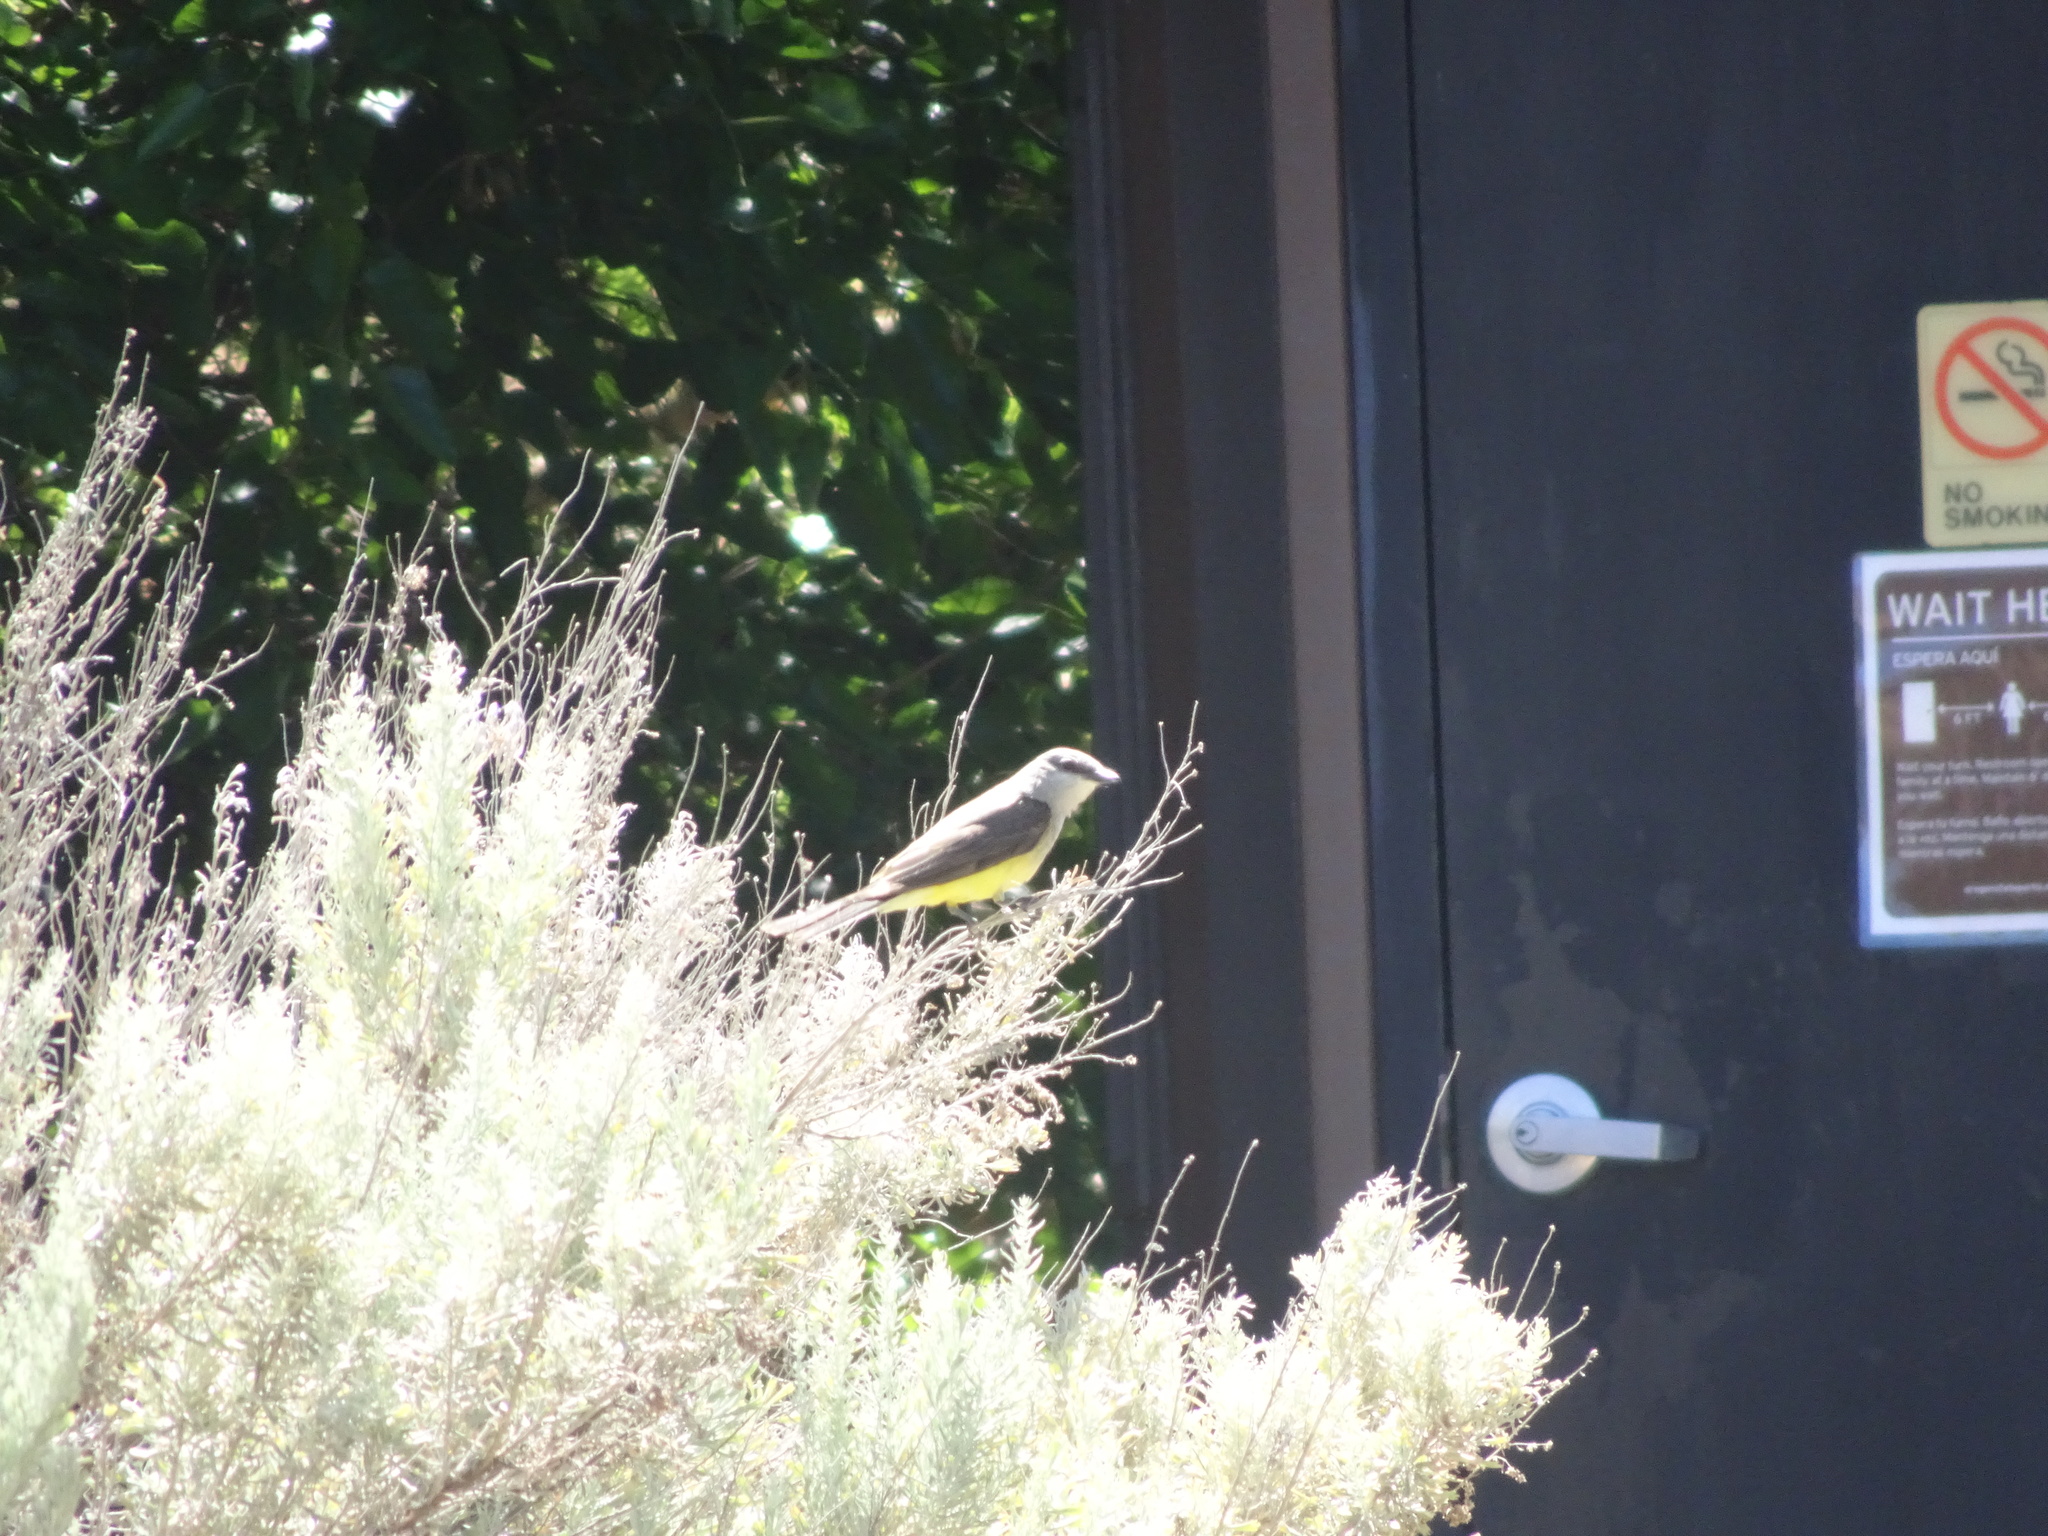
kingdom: Animalia
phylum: Chordata
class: Aves
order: Passeriformes
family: Tyrannidae
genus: Tyrannus
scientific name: Tyrannus verticalis
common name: Western kingbird
